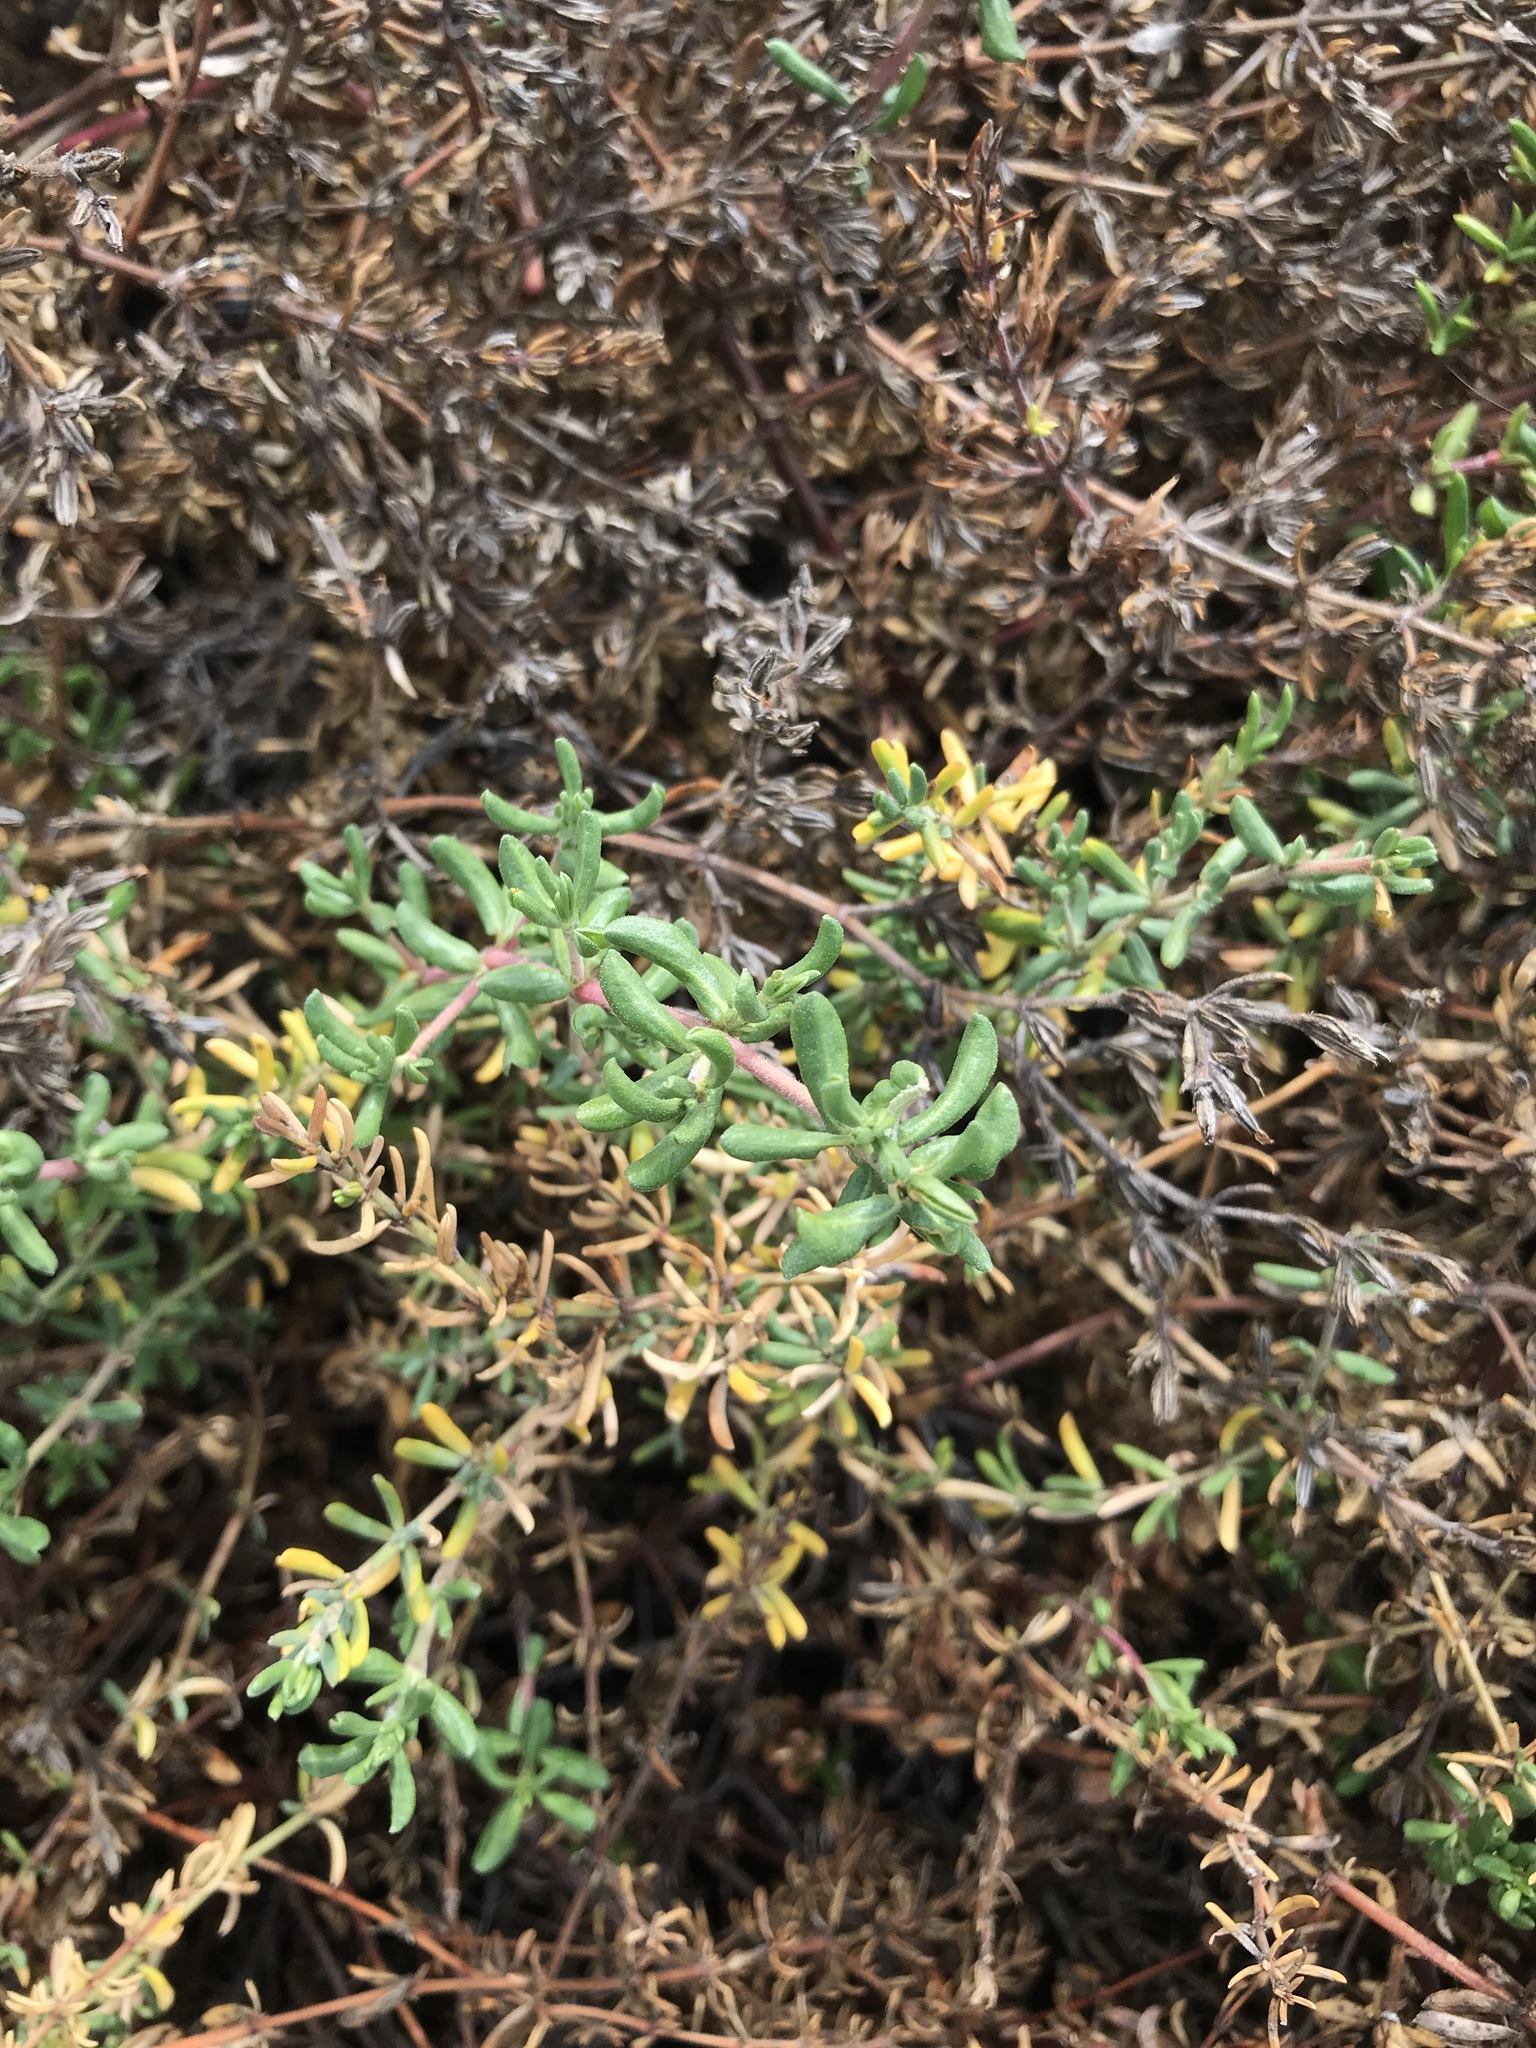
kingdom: Plantae
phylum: Tracheophyta
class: Magnoliopsida
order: Caryophyllales
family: Frankeniaceae
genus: Frankenia
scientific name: Frankenia salina
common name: Alkali seaheath
